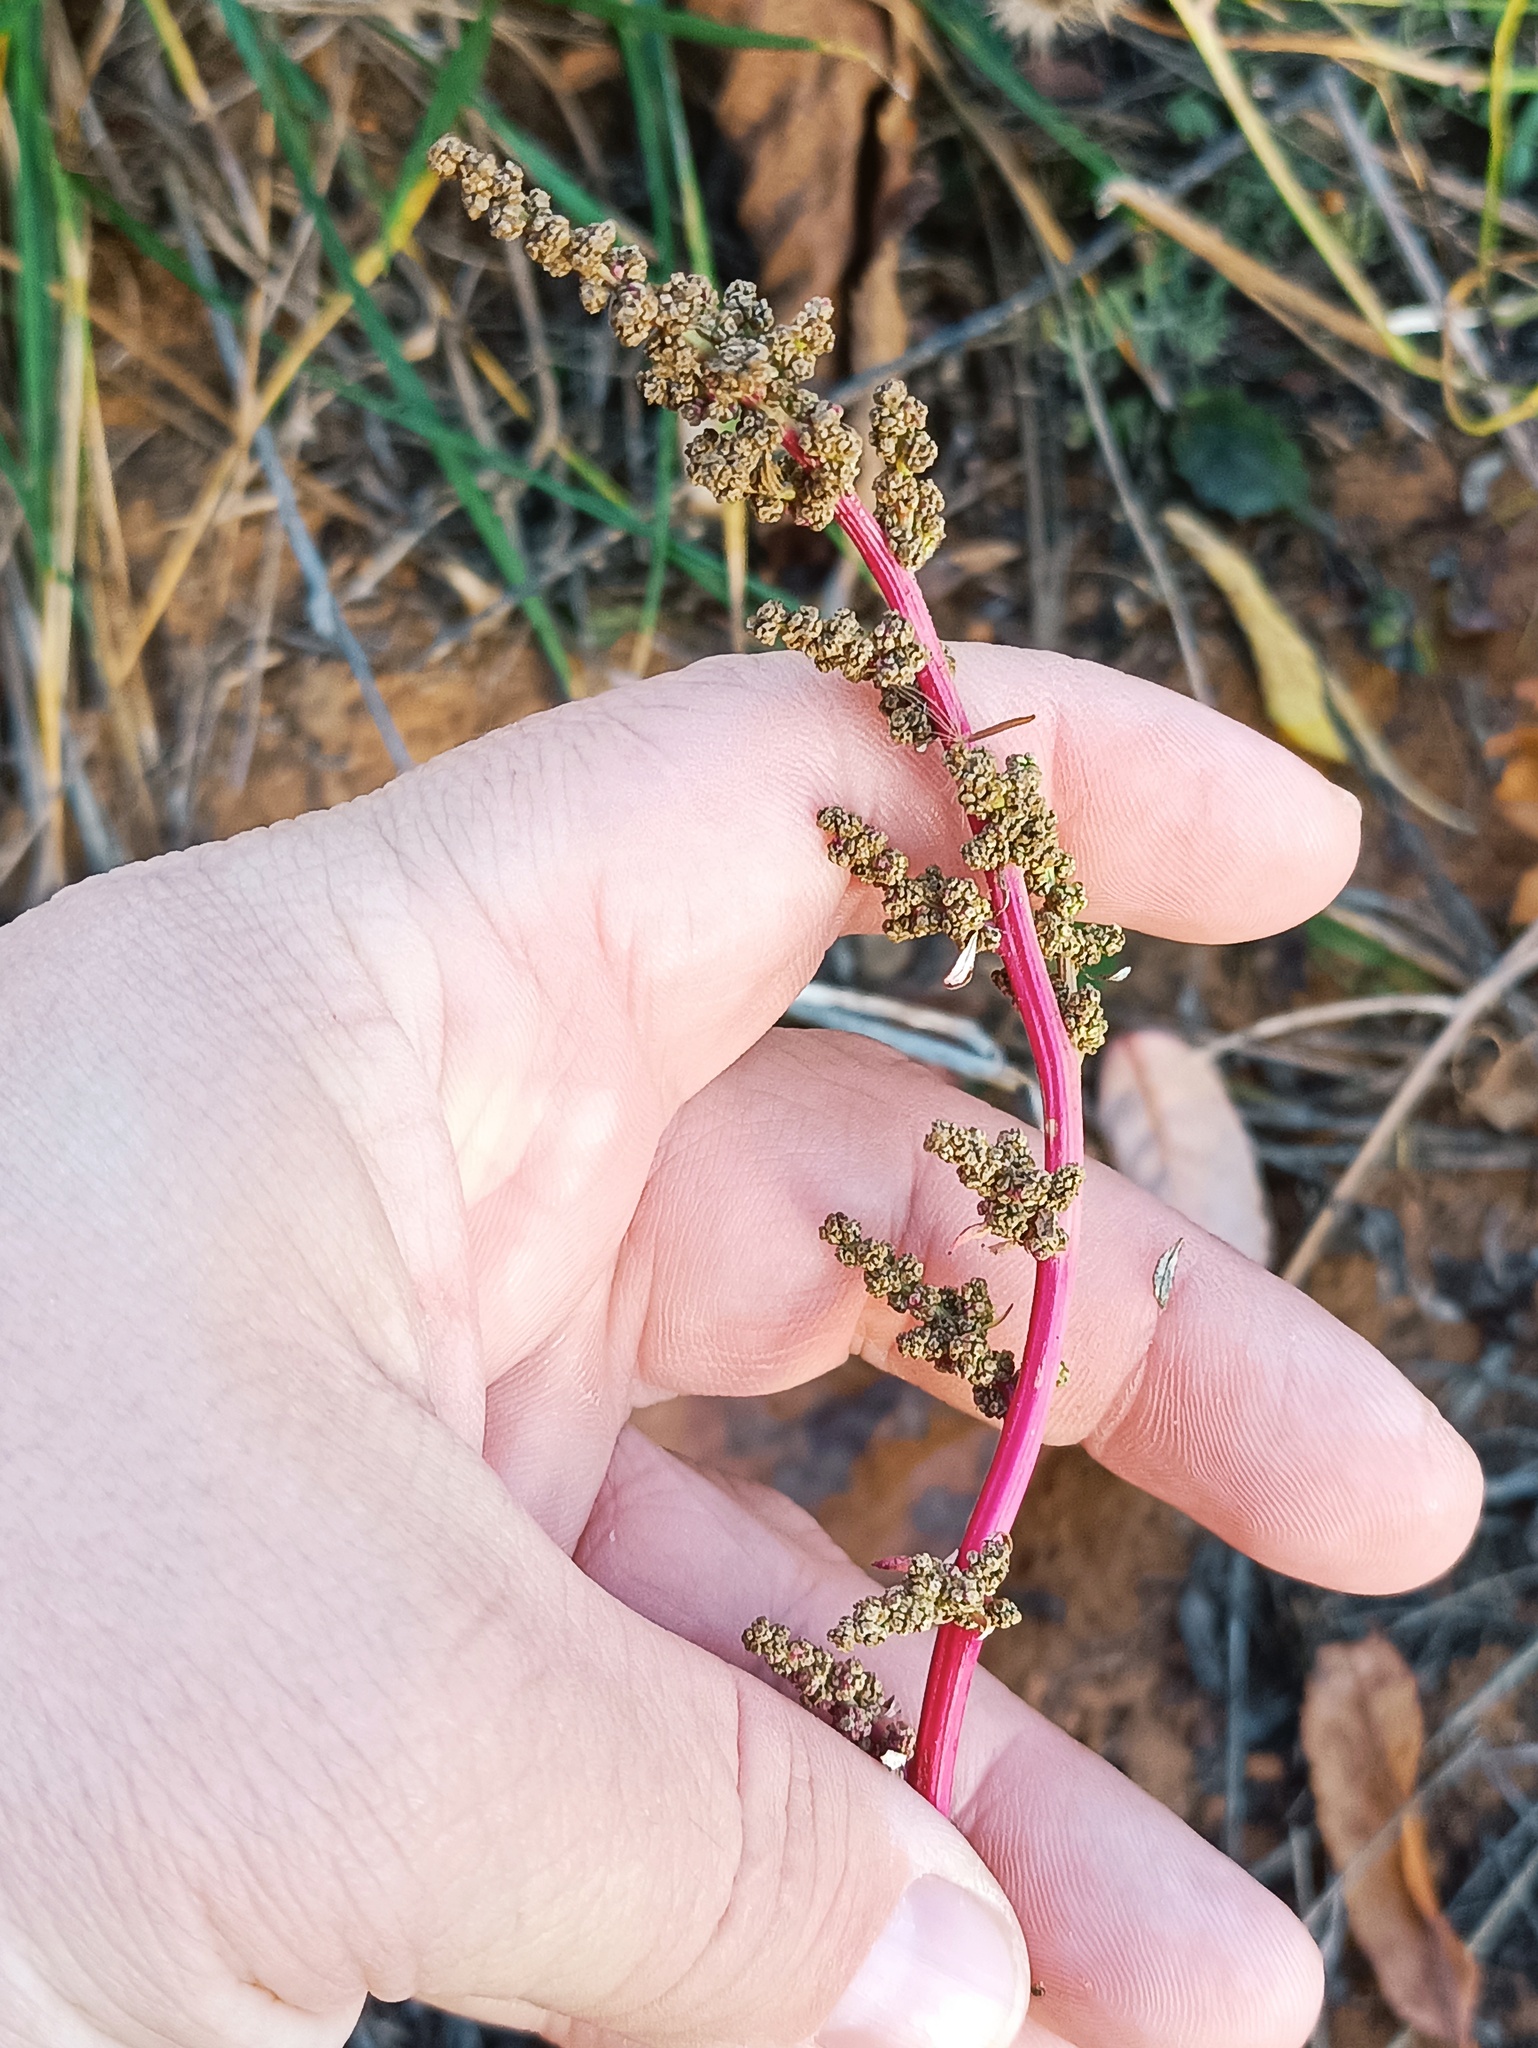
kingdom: Plantae
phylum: Tracheophyta
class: Magnoliopsida
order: Caryophyllales
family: Amaranthaceae
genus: Oxybasis
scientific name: Oxybasis glauca
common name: Glaucous goosefoot
